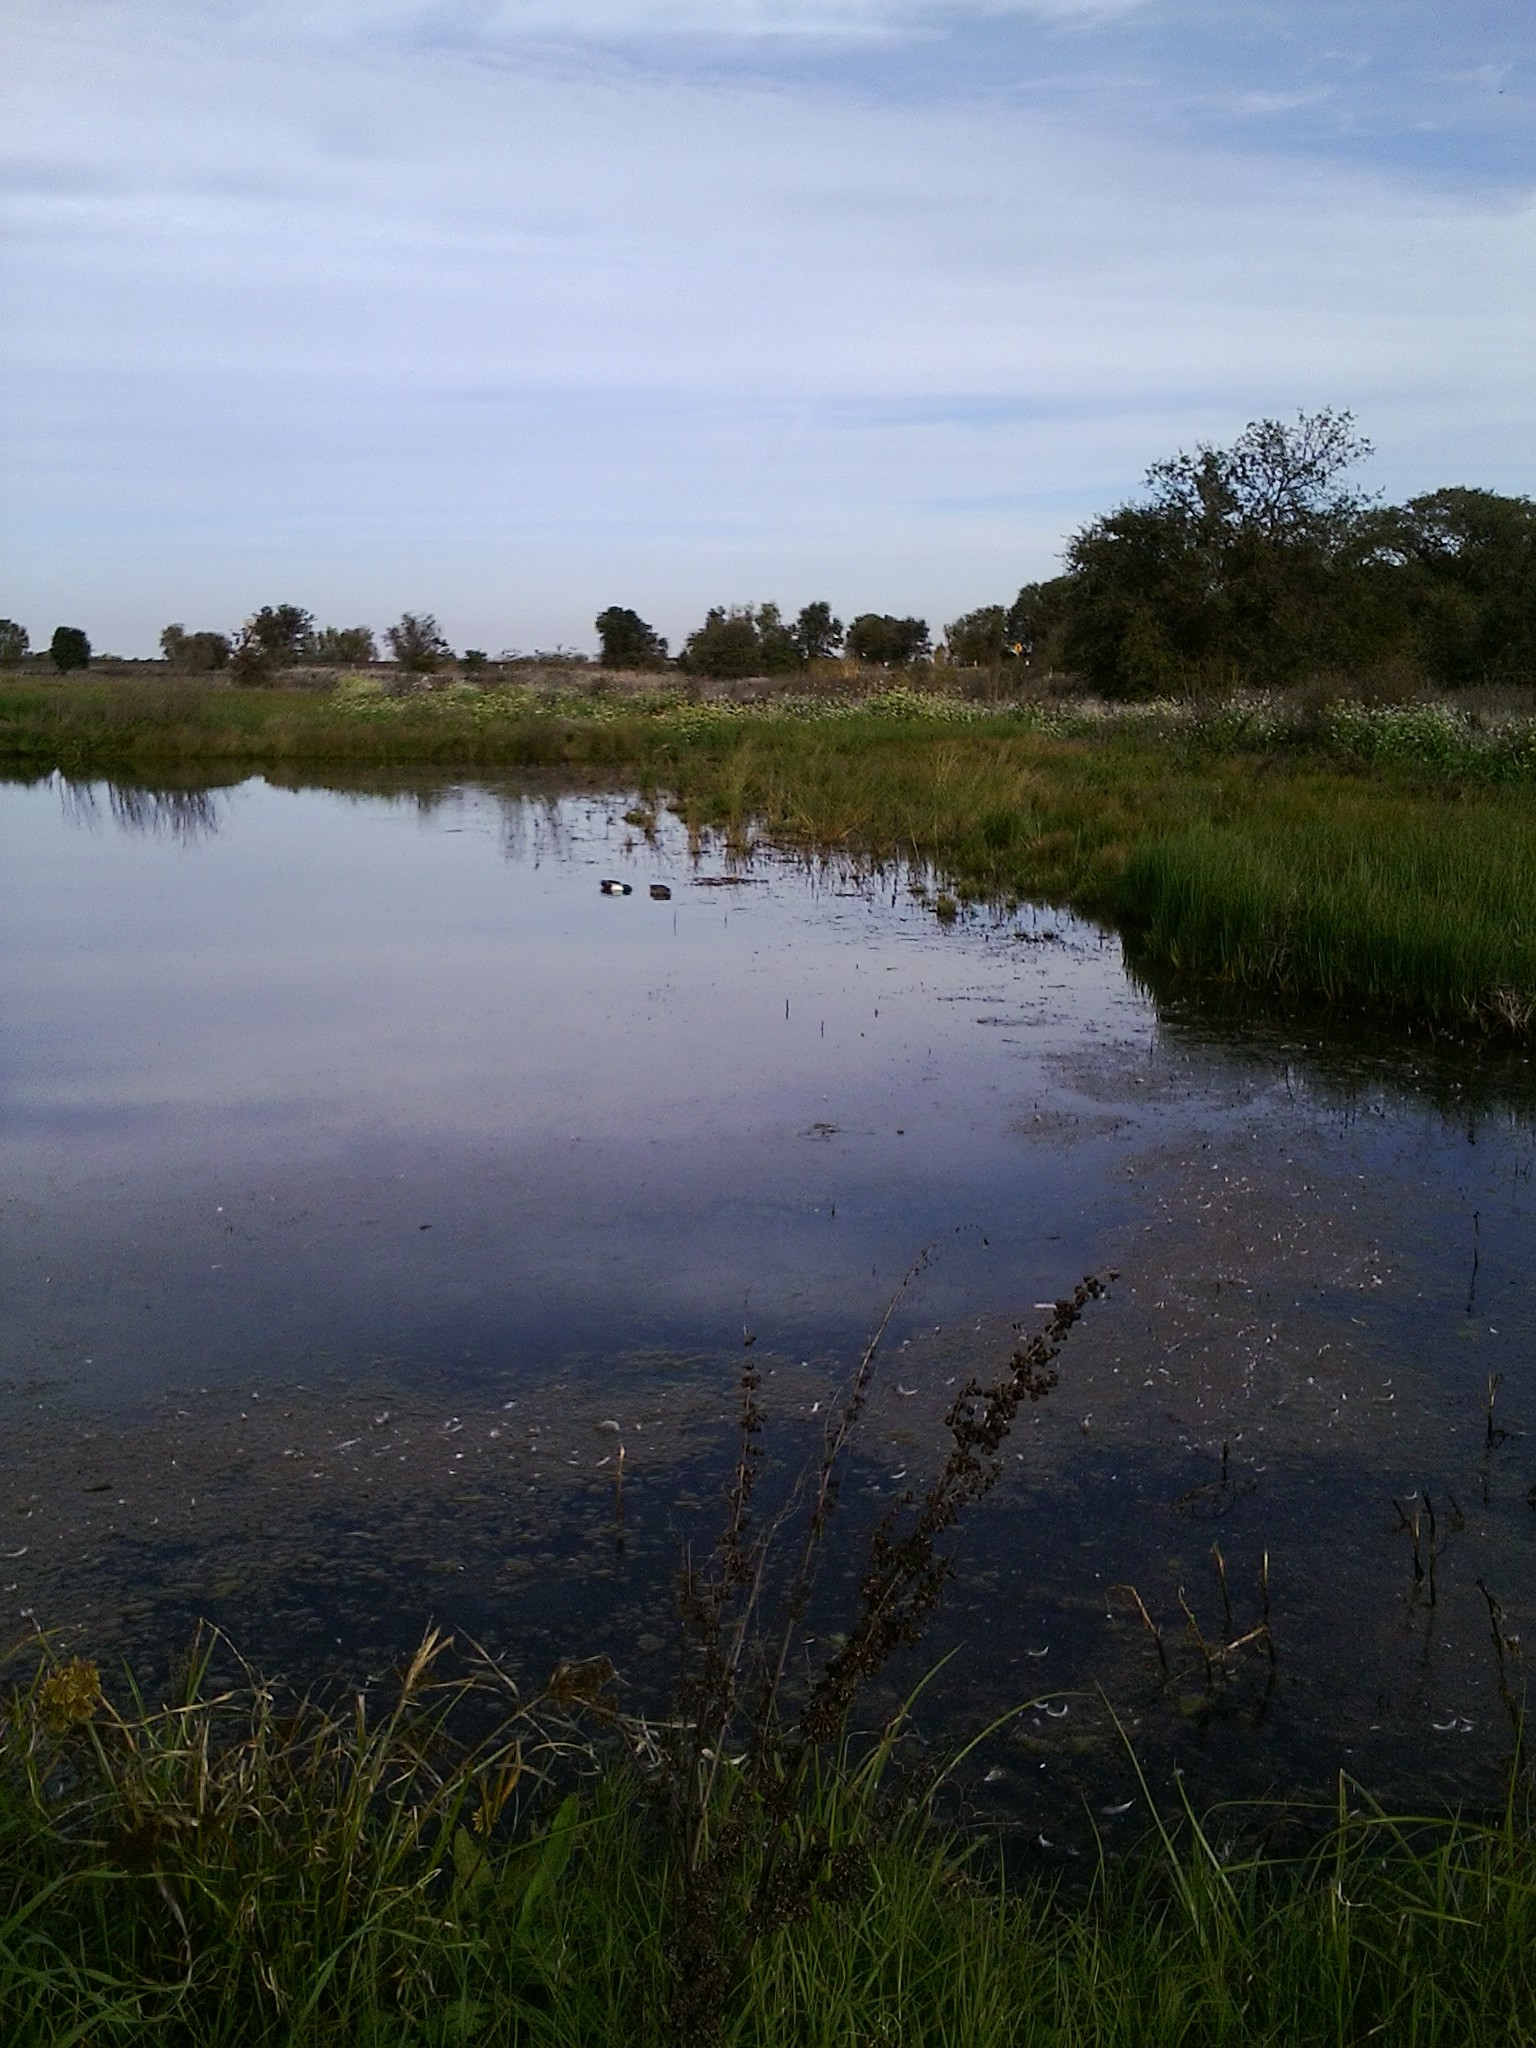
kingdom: Animalia
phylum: Chordata
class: Aves
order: Anseriformes
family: Anatidae
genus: Spatula
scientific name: Spatula clypeata
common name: Northern shoveler
